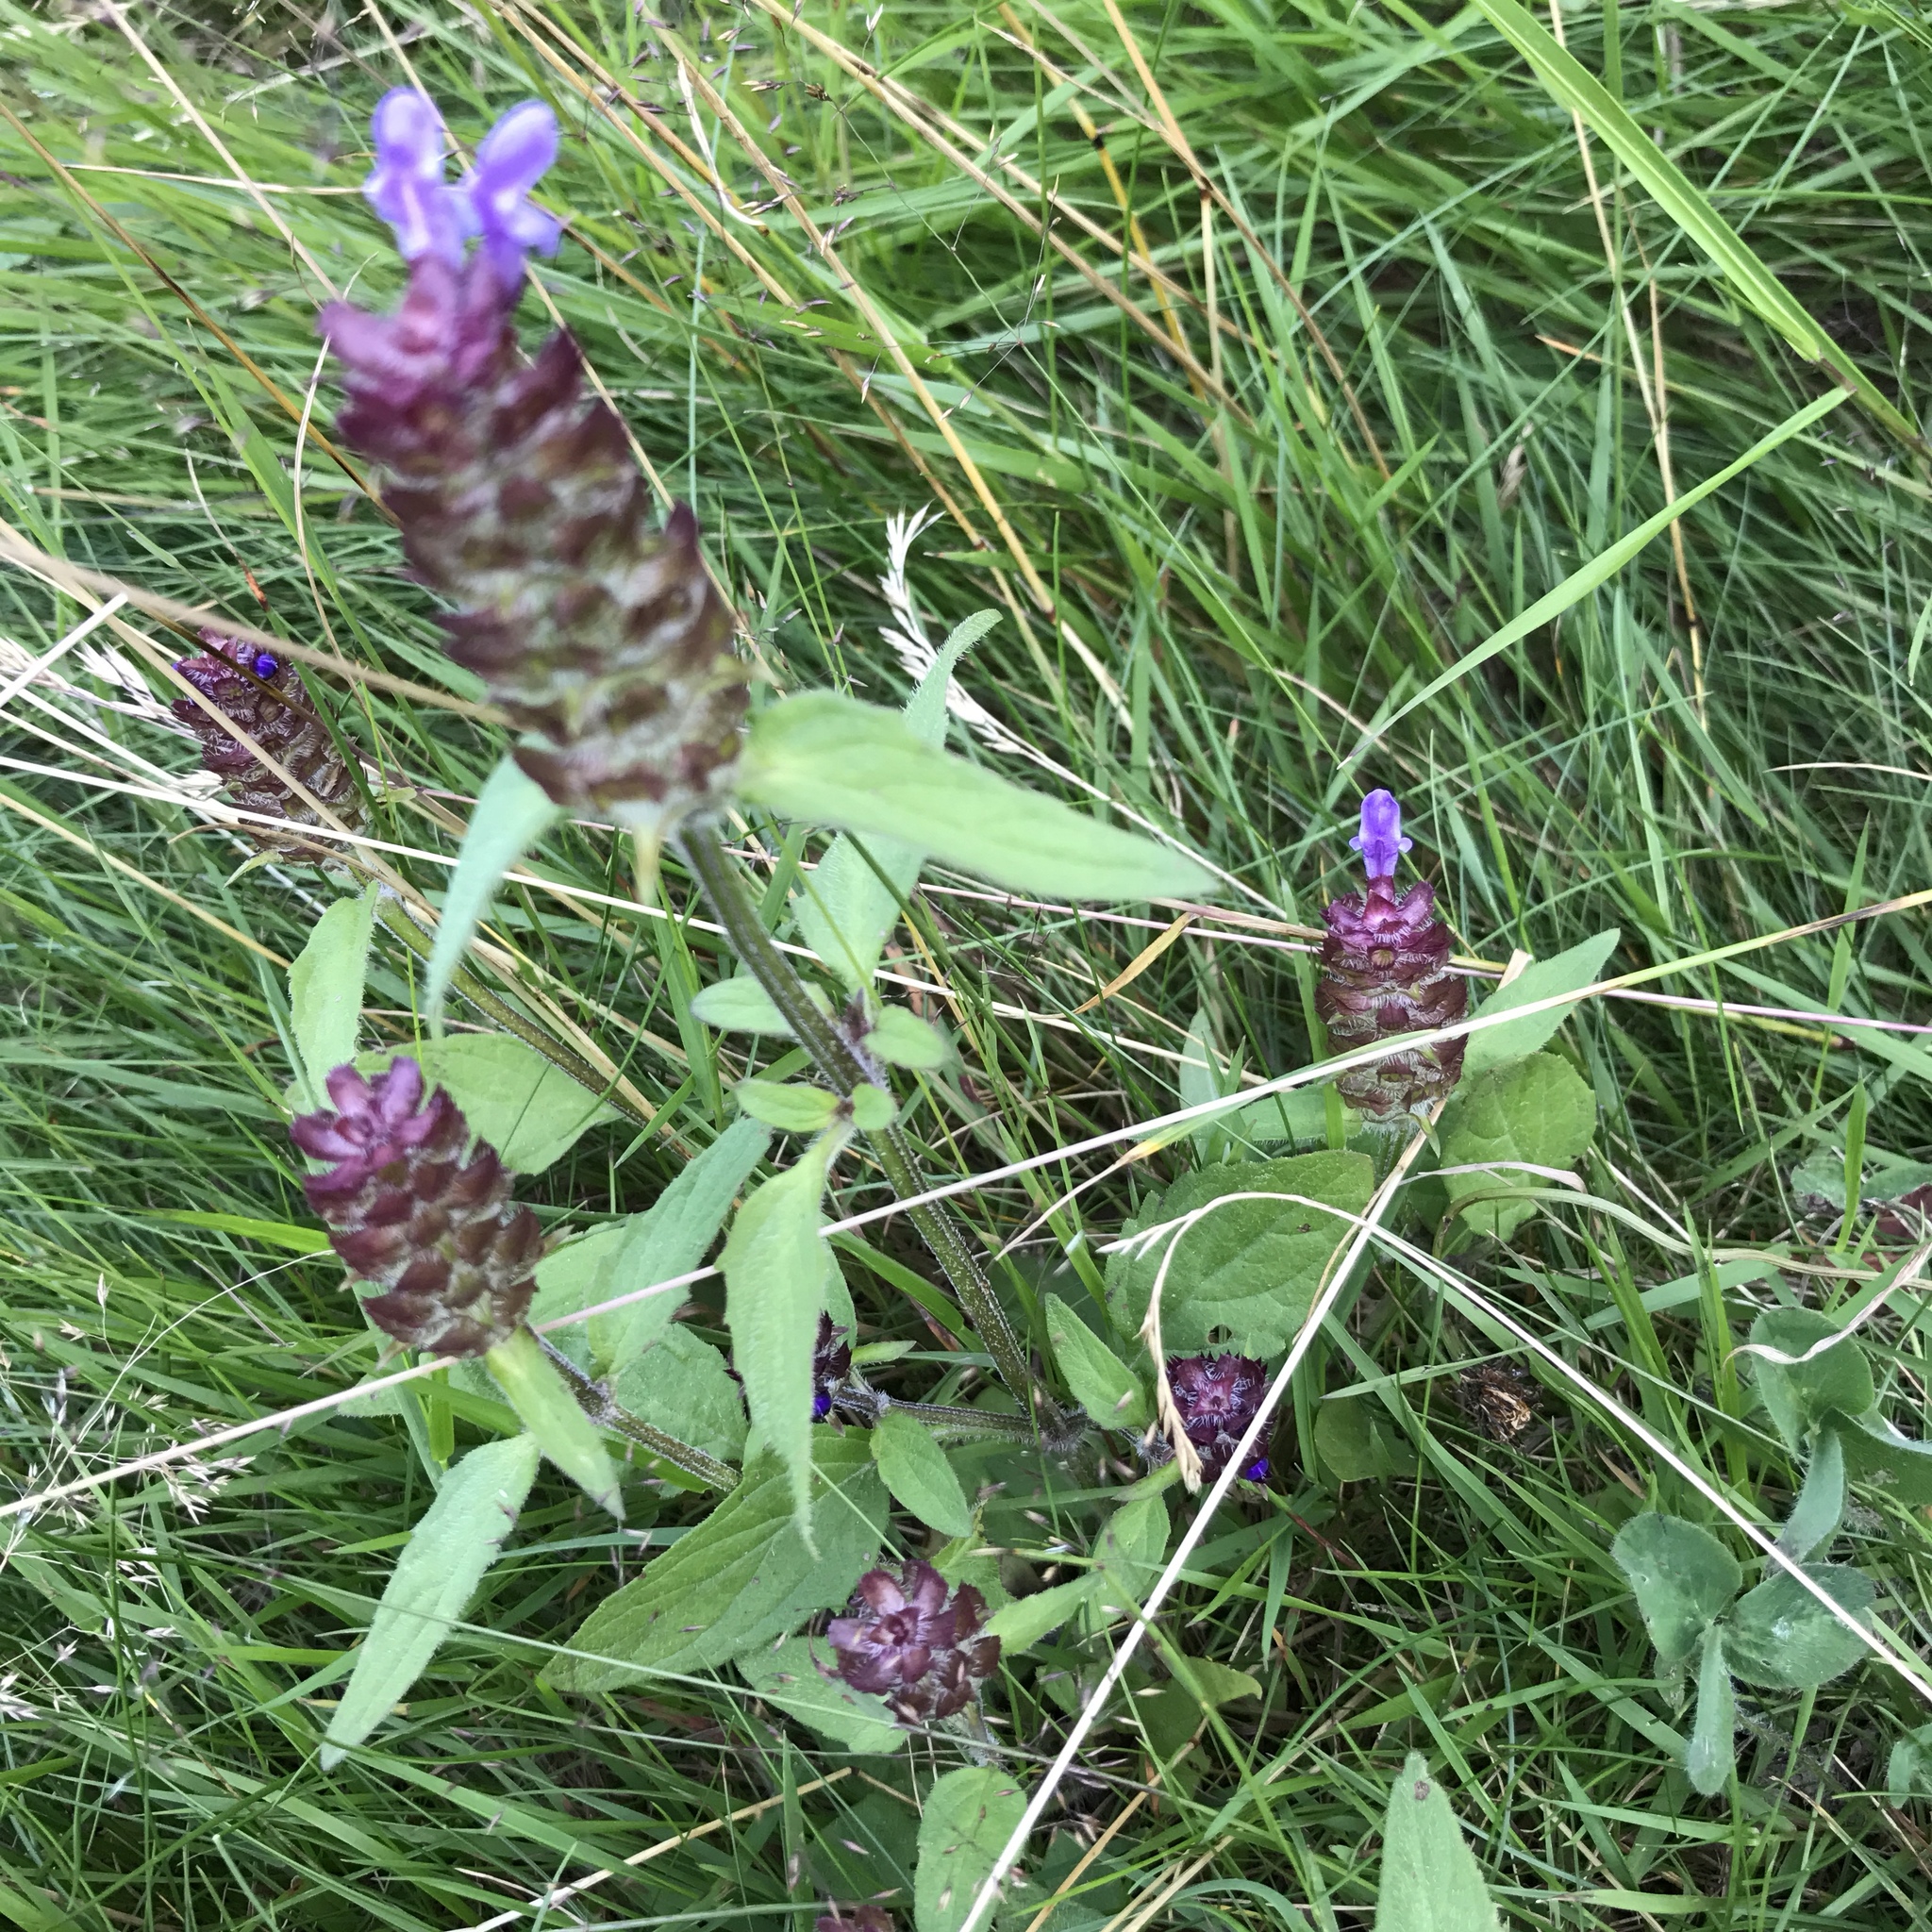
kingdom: Plantae
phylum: Tracheophyta
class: Magnoliopsida
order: Lamiales
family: Lamiaceae
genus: Prunella
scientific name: Prunella vulgaris
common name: Heal-all
